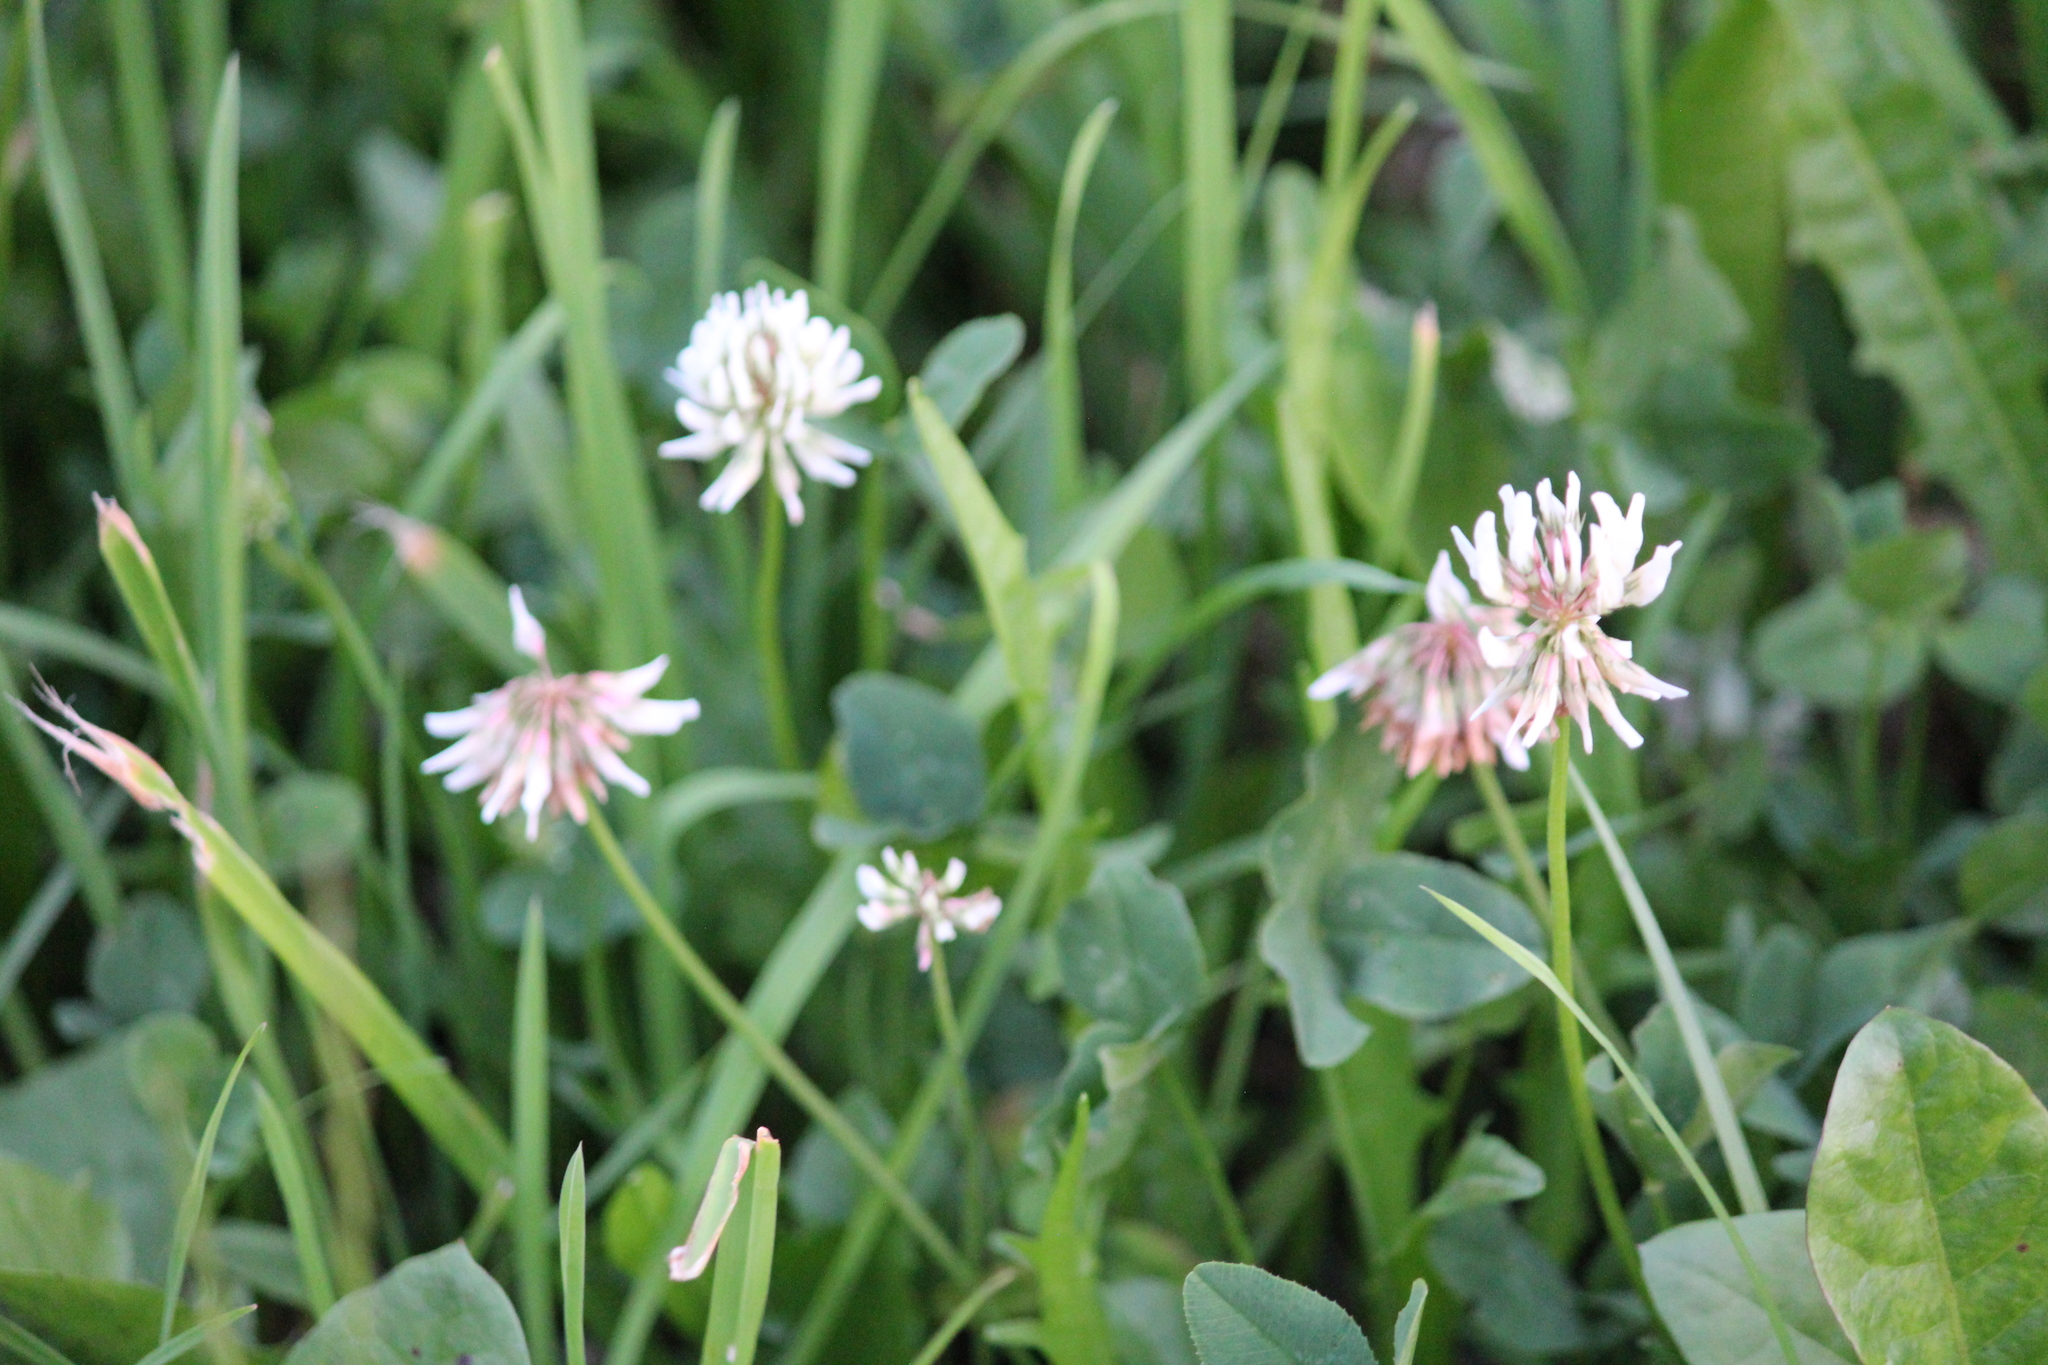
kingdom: Plantae
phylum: Tracheophyta
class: Magnoliopsida
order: Fabales
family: Fabaceae
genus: Trifolium
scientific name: Trifolium repens
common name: White clover
